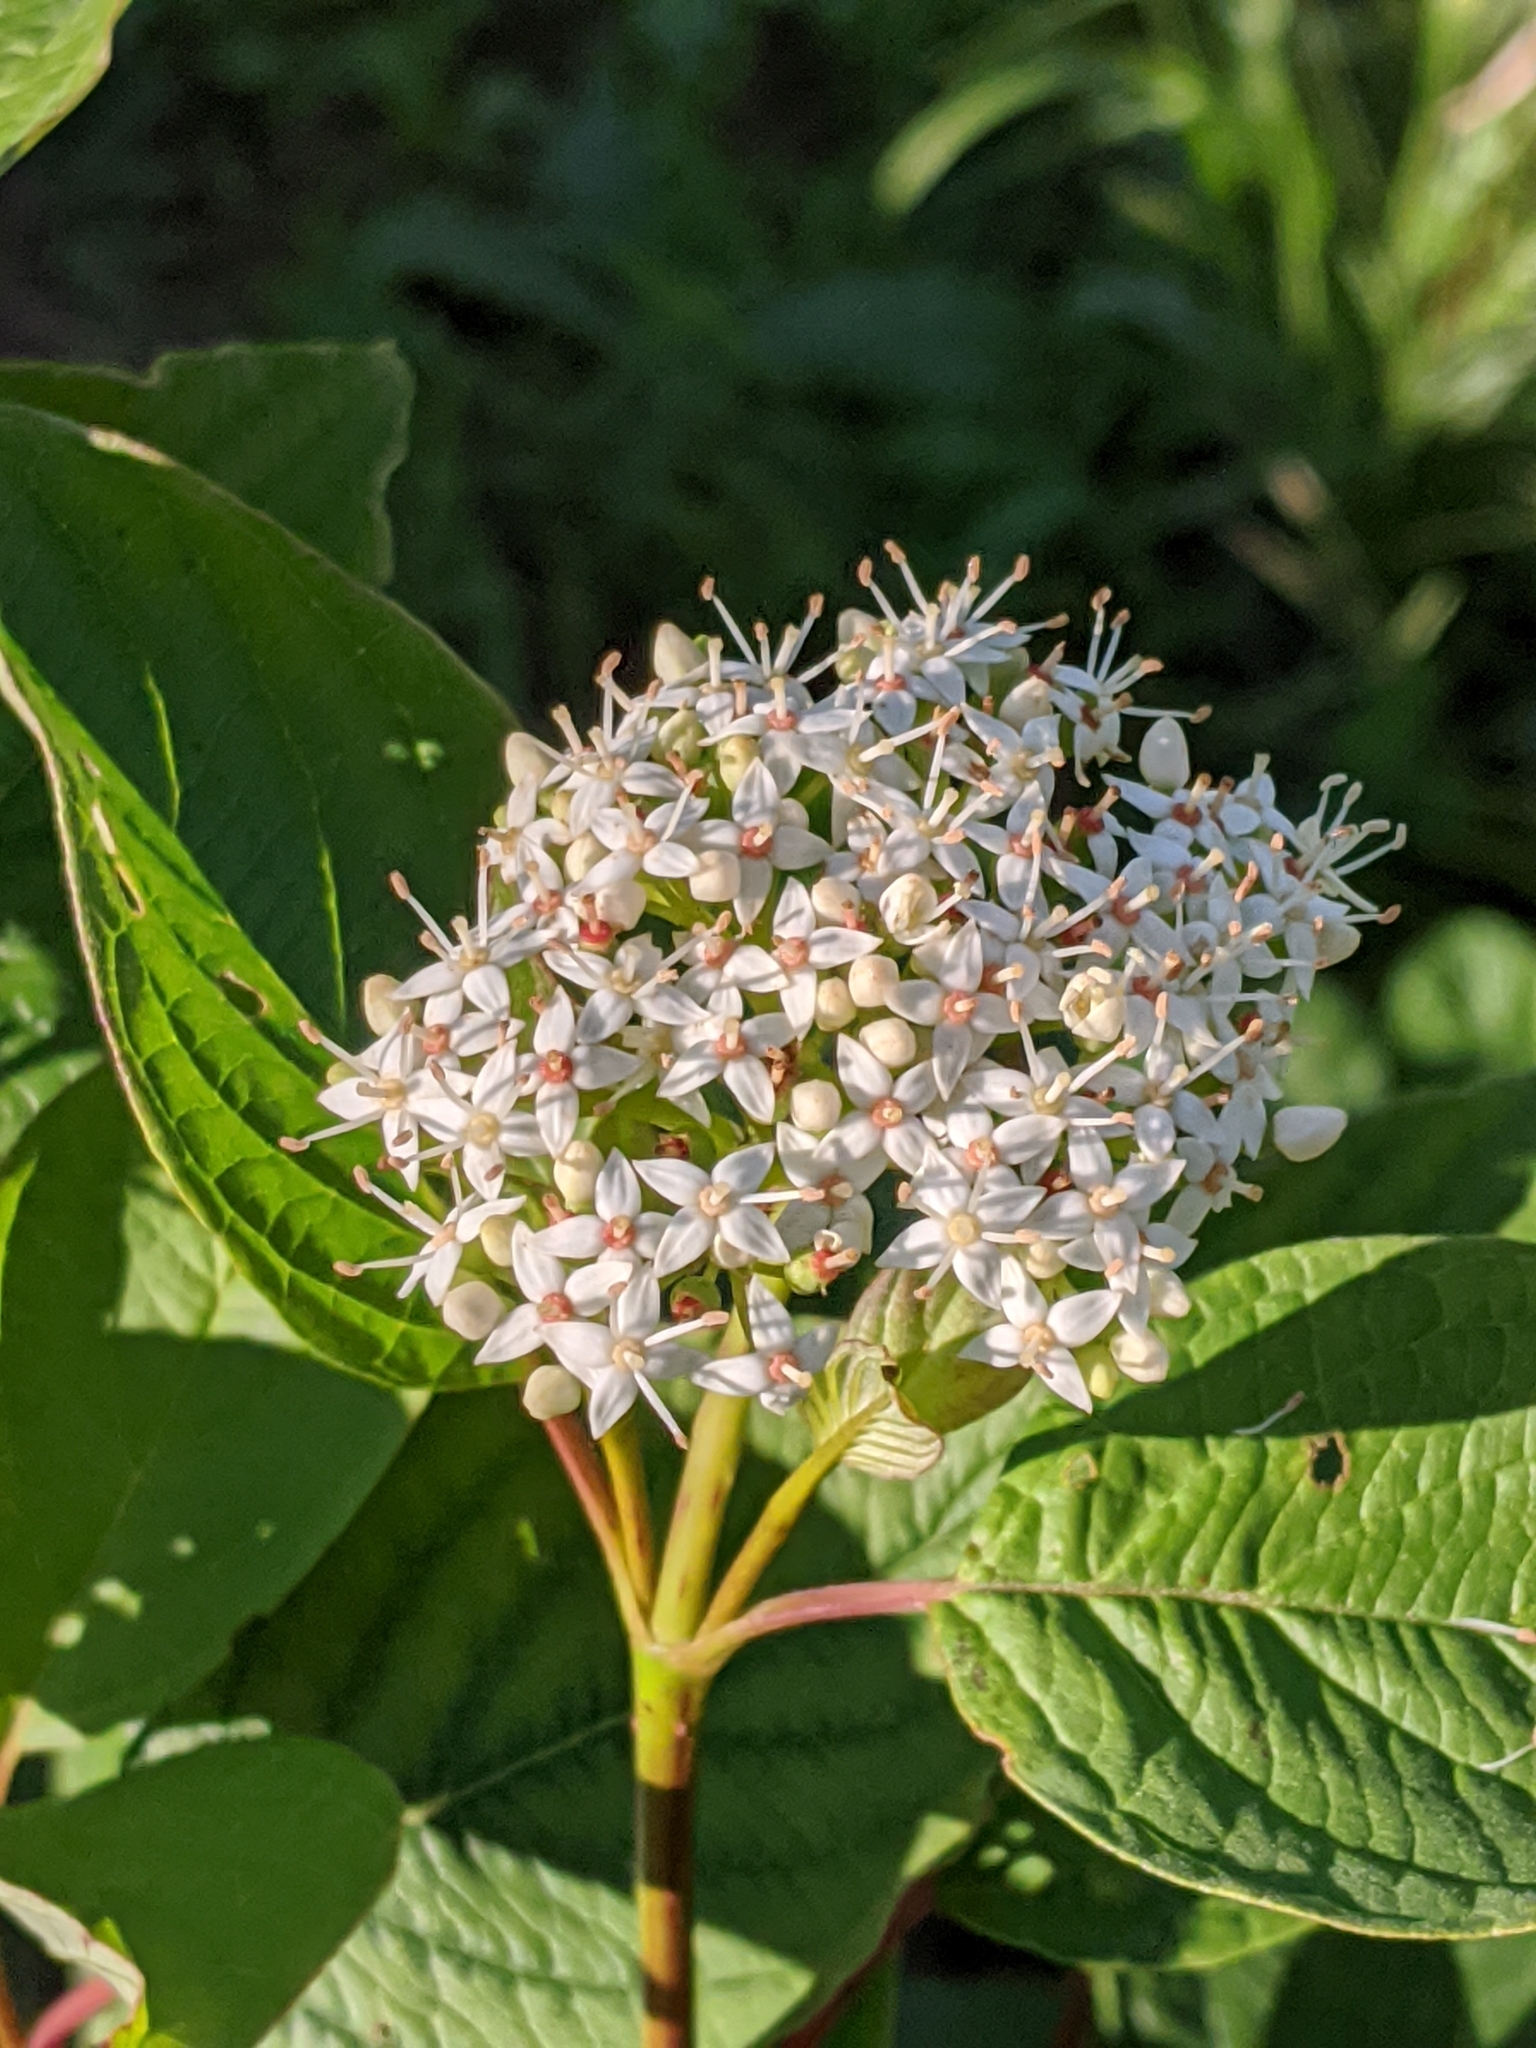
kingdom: Plantae
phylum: Tracheophyta
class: Magnoliopsida
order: Cornales
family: Cornaceae
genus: Cornus
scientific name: Cornus sericea
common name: Red-osier dogwood
